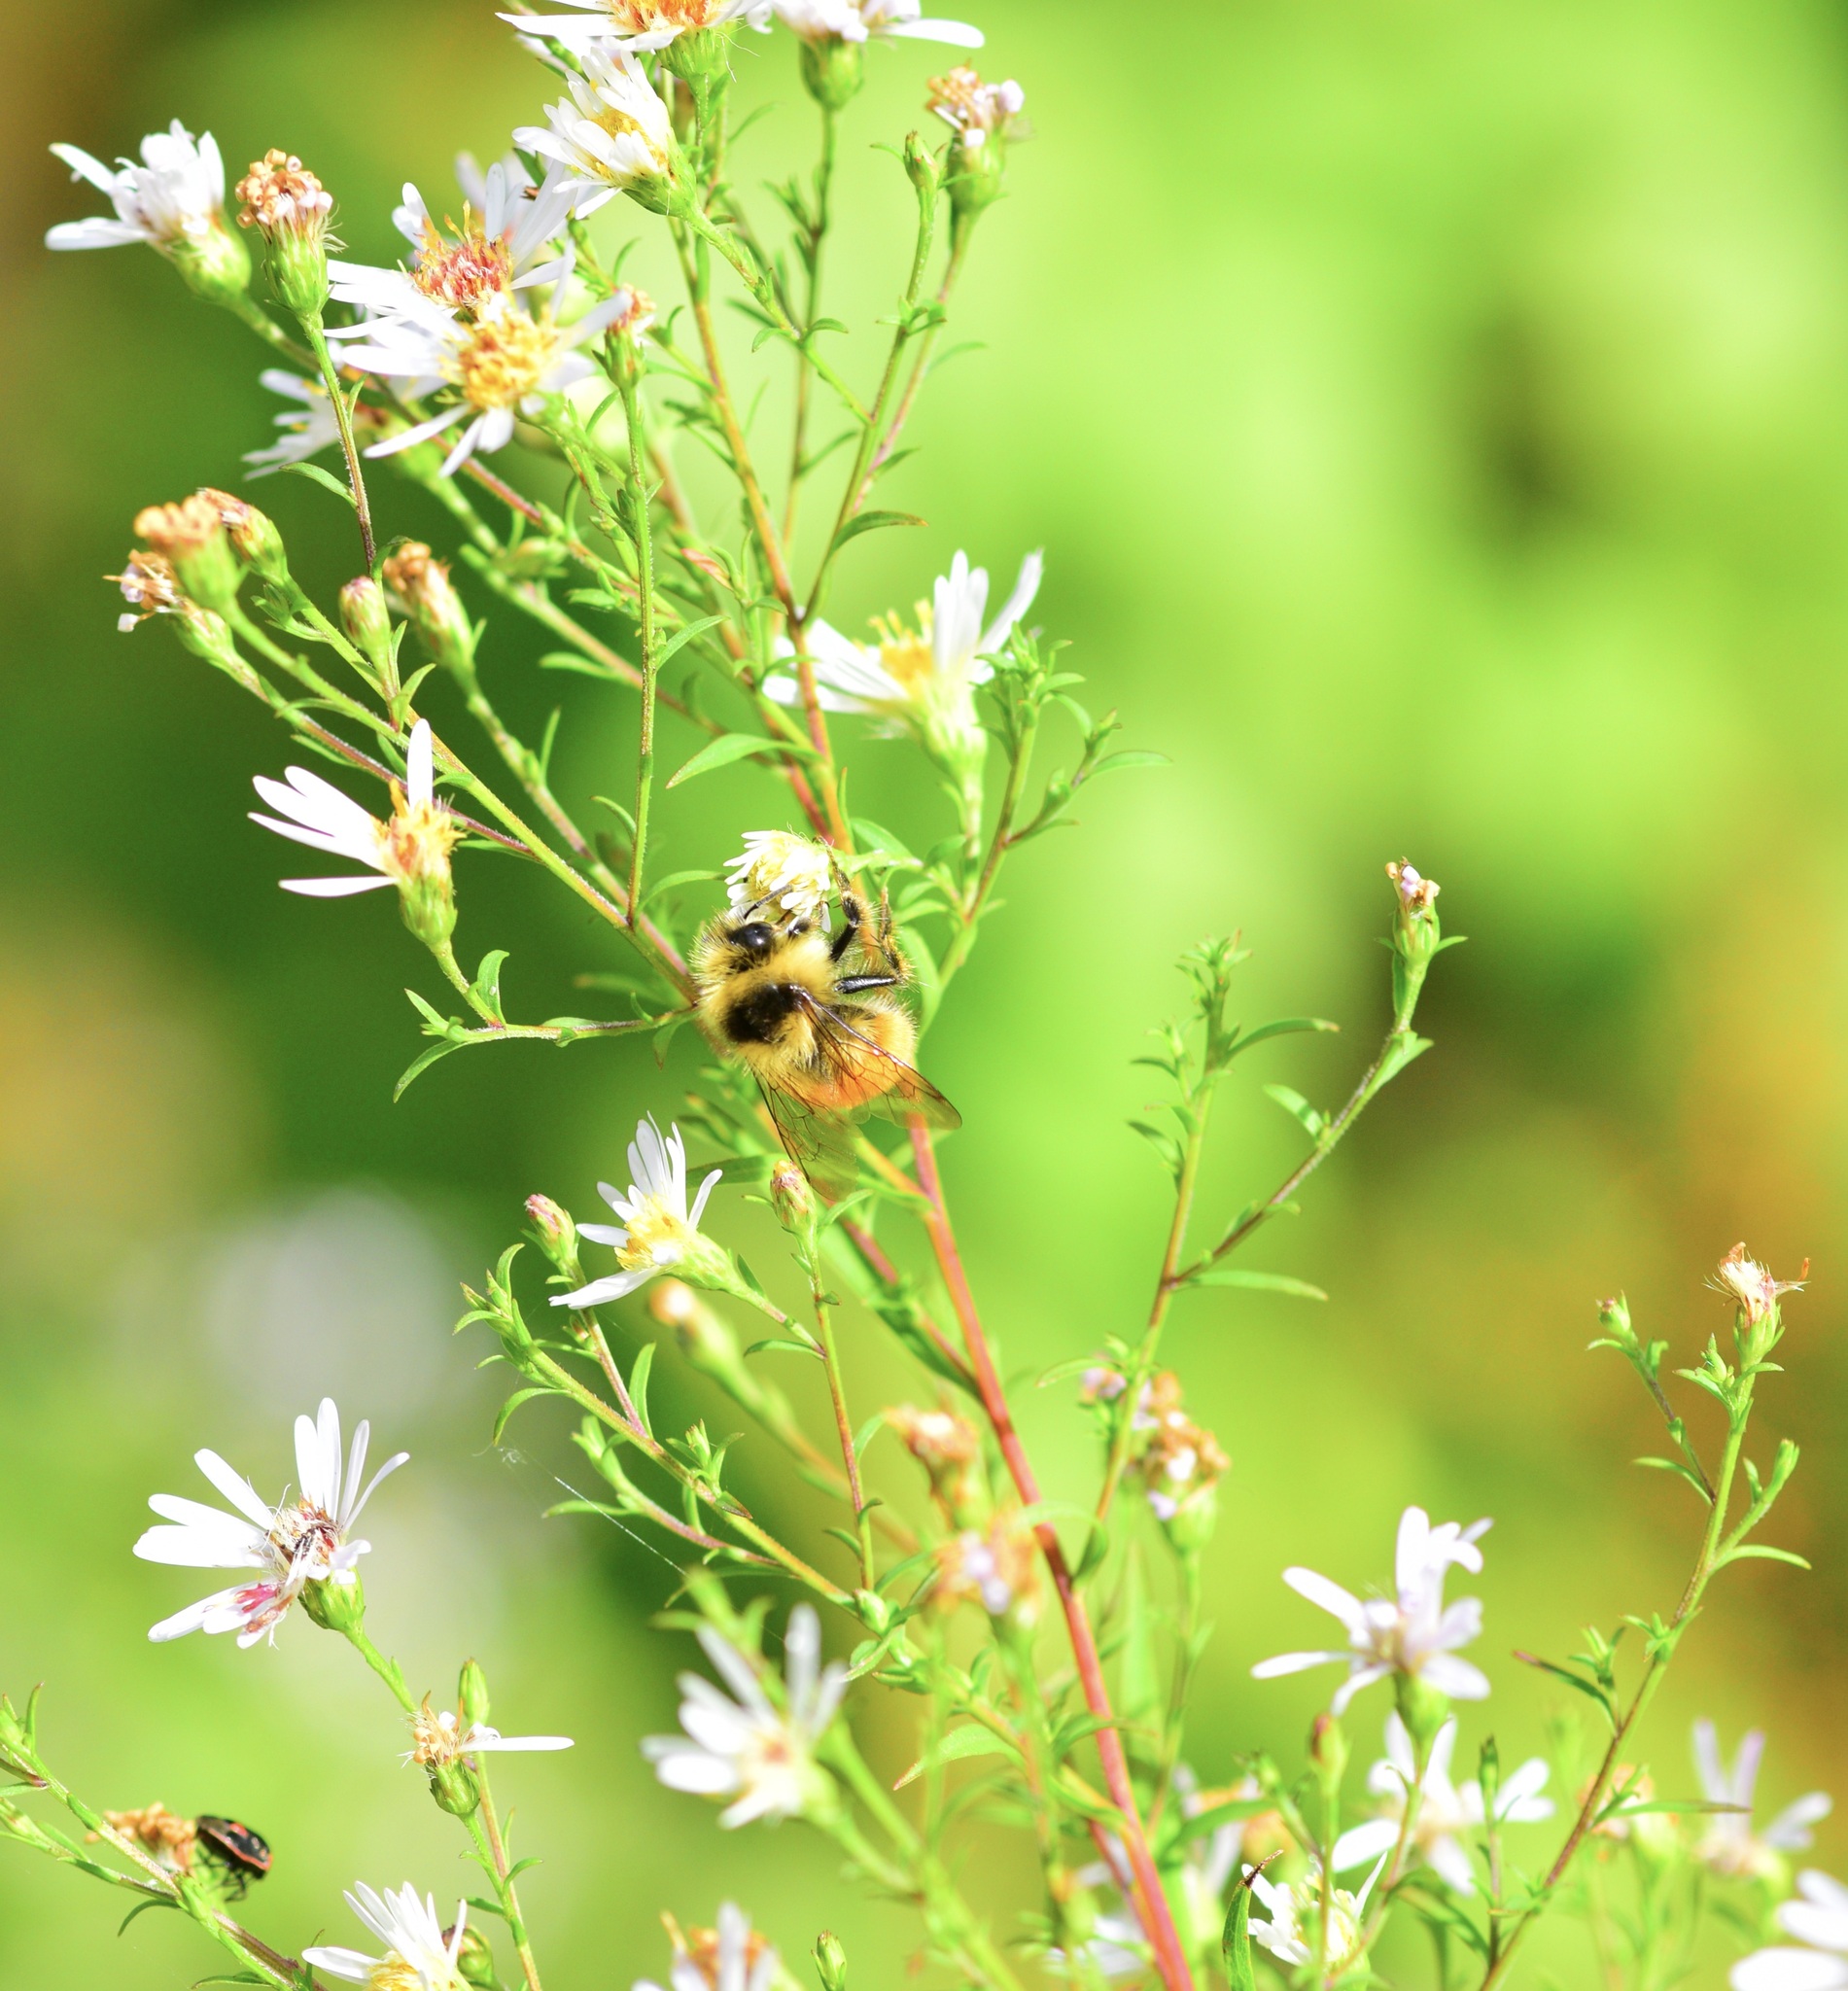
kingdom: Animalia
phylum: Arthropoda
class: Insecta
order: Hymenoptera
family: Apidae
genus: Bombus
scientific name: Bombus ternarius
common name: Tri-colored bumble bee
